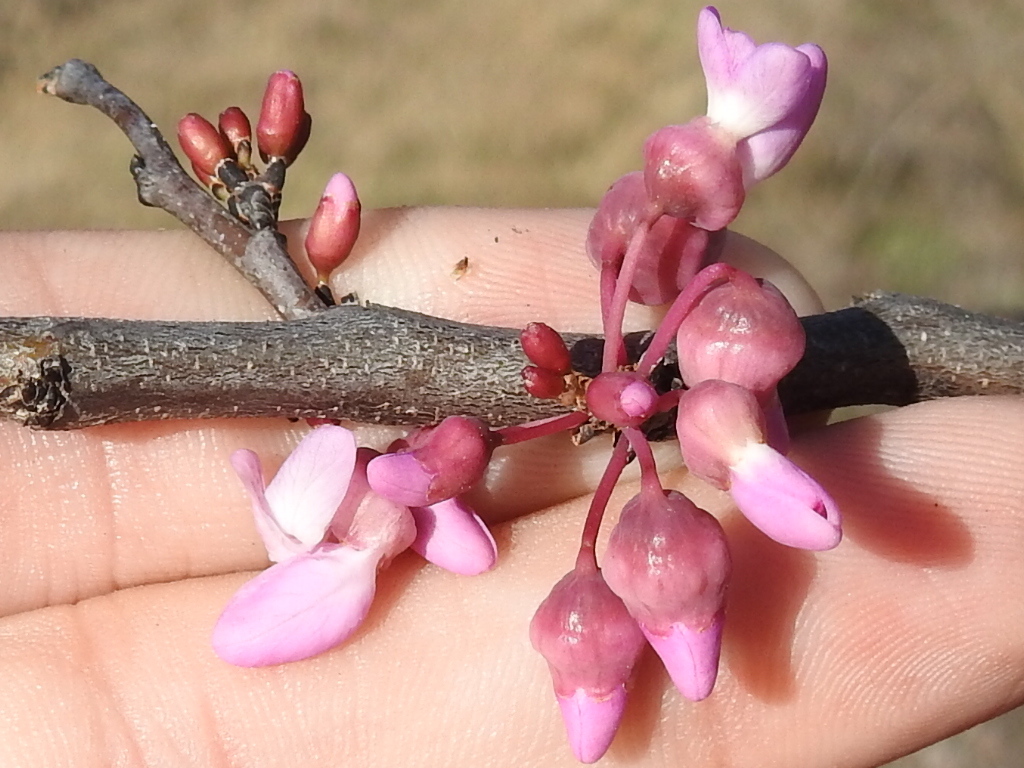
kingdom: Plantae
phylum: Tracheophyta
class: Magnoliopsida
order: Fabales
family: Fabaceae
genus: Cercis
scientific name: Cercis canadensis
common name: Eastern redbud
